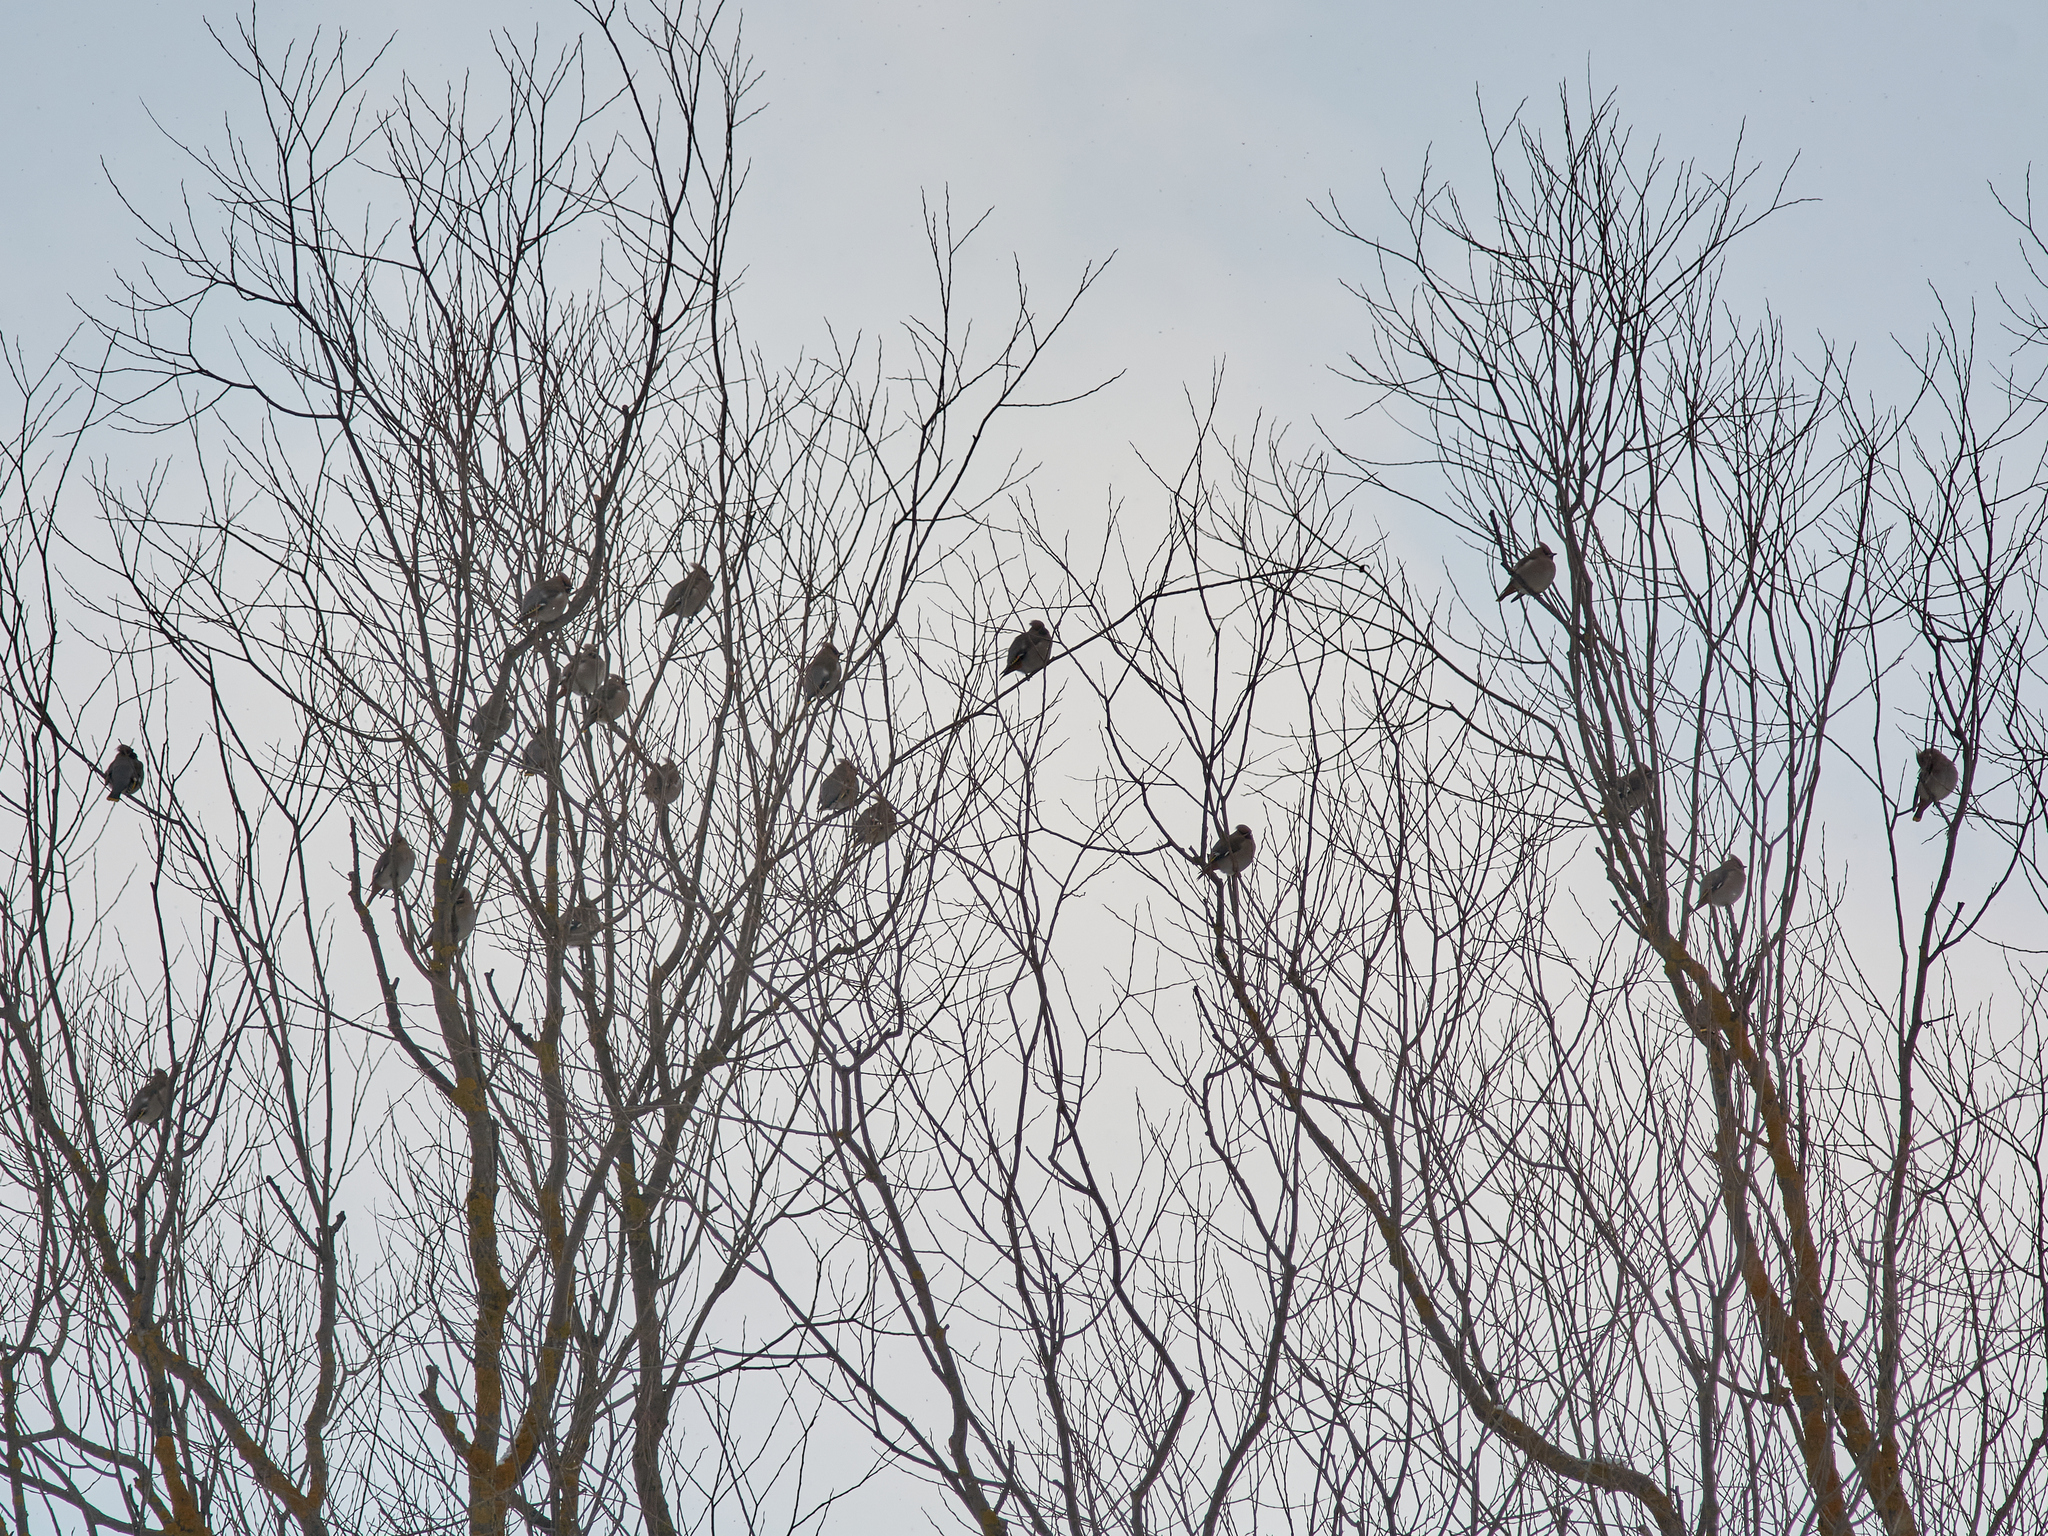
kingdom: Animalia
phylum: Chordata
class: Aves
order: Passeriformes
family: Bombycillidae
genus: Bombycilla
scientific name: Bombycilla garrulus
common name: Bohemian waxwing
